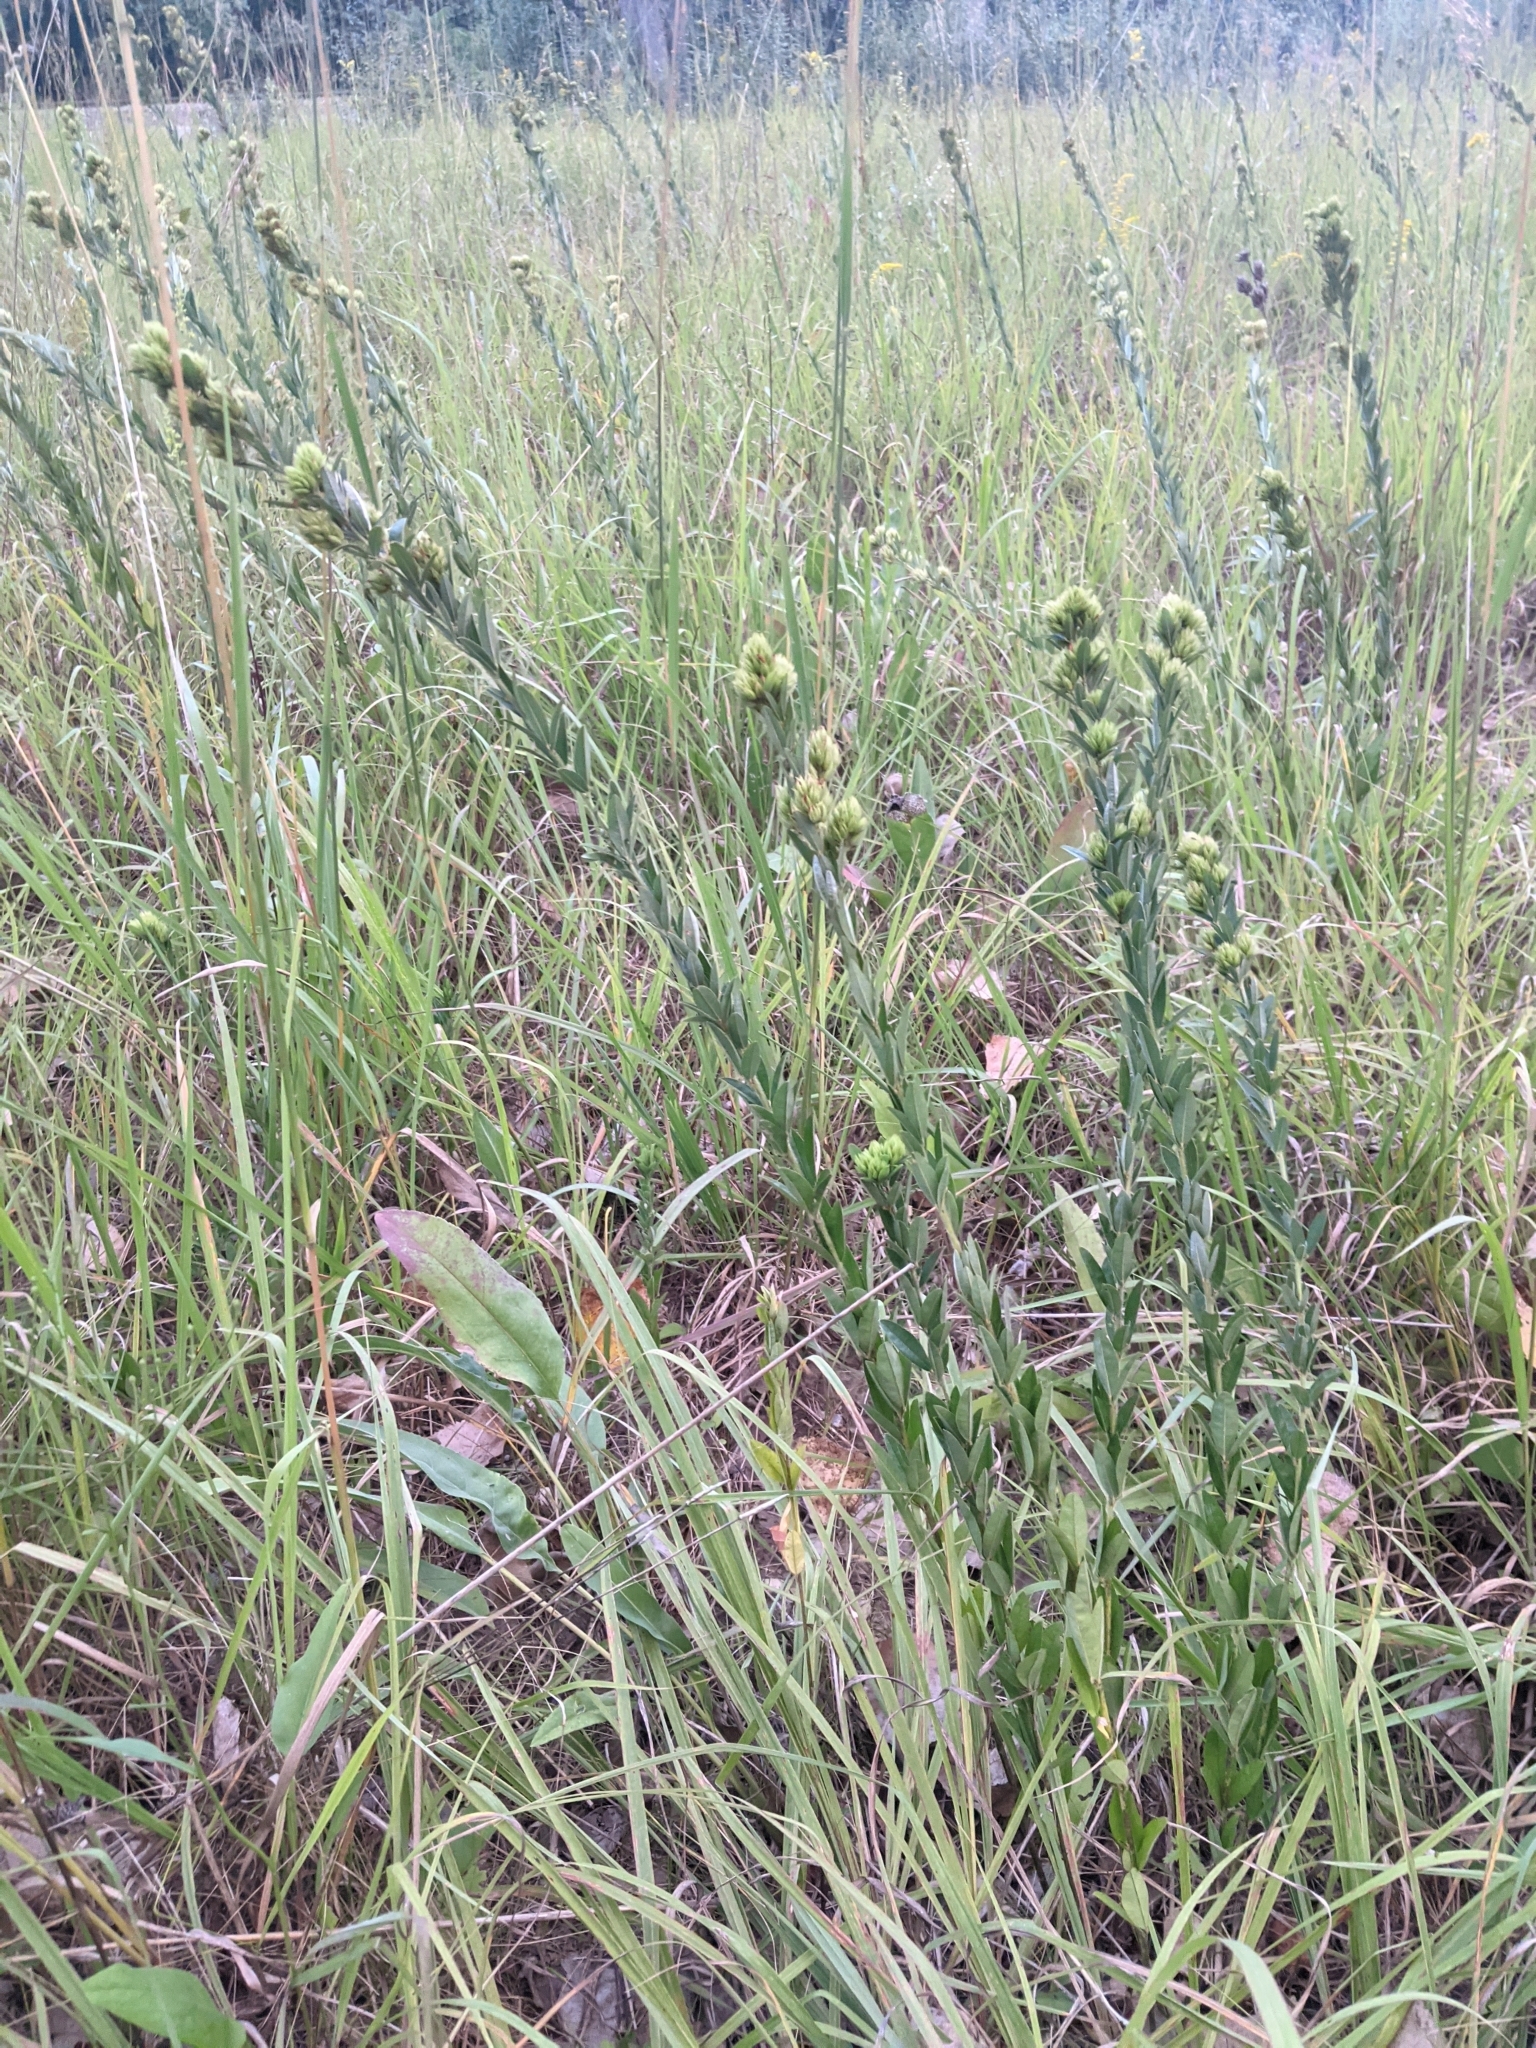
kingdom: Plantae
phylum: Tracheophyta
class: Magnoliopsida
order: Fabales
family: Fabaceae
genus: Lespedeza
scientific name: Lespedeza capitata
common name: Dusty clover
